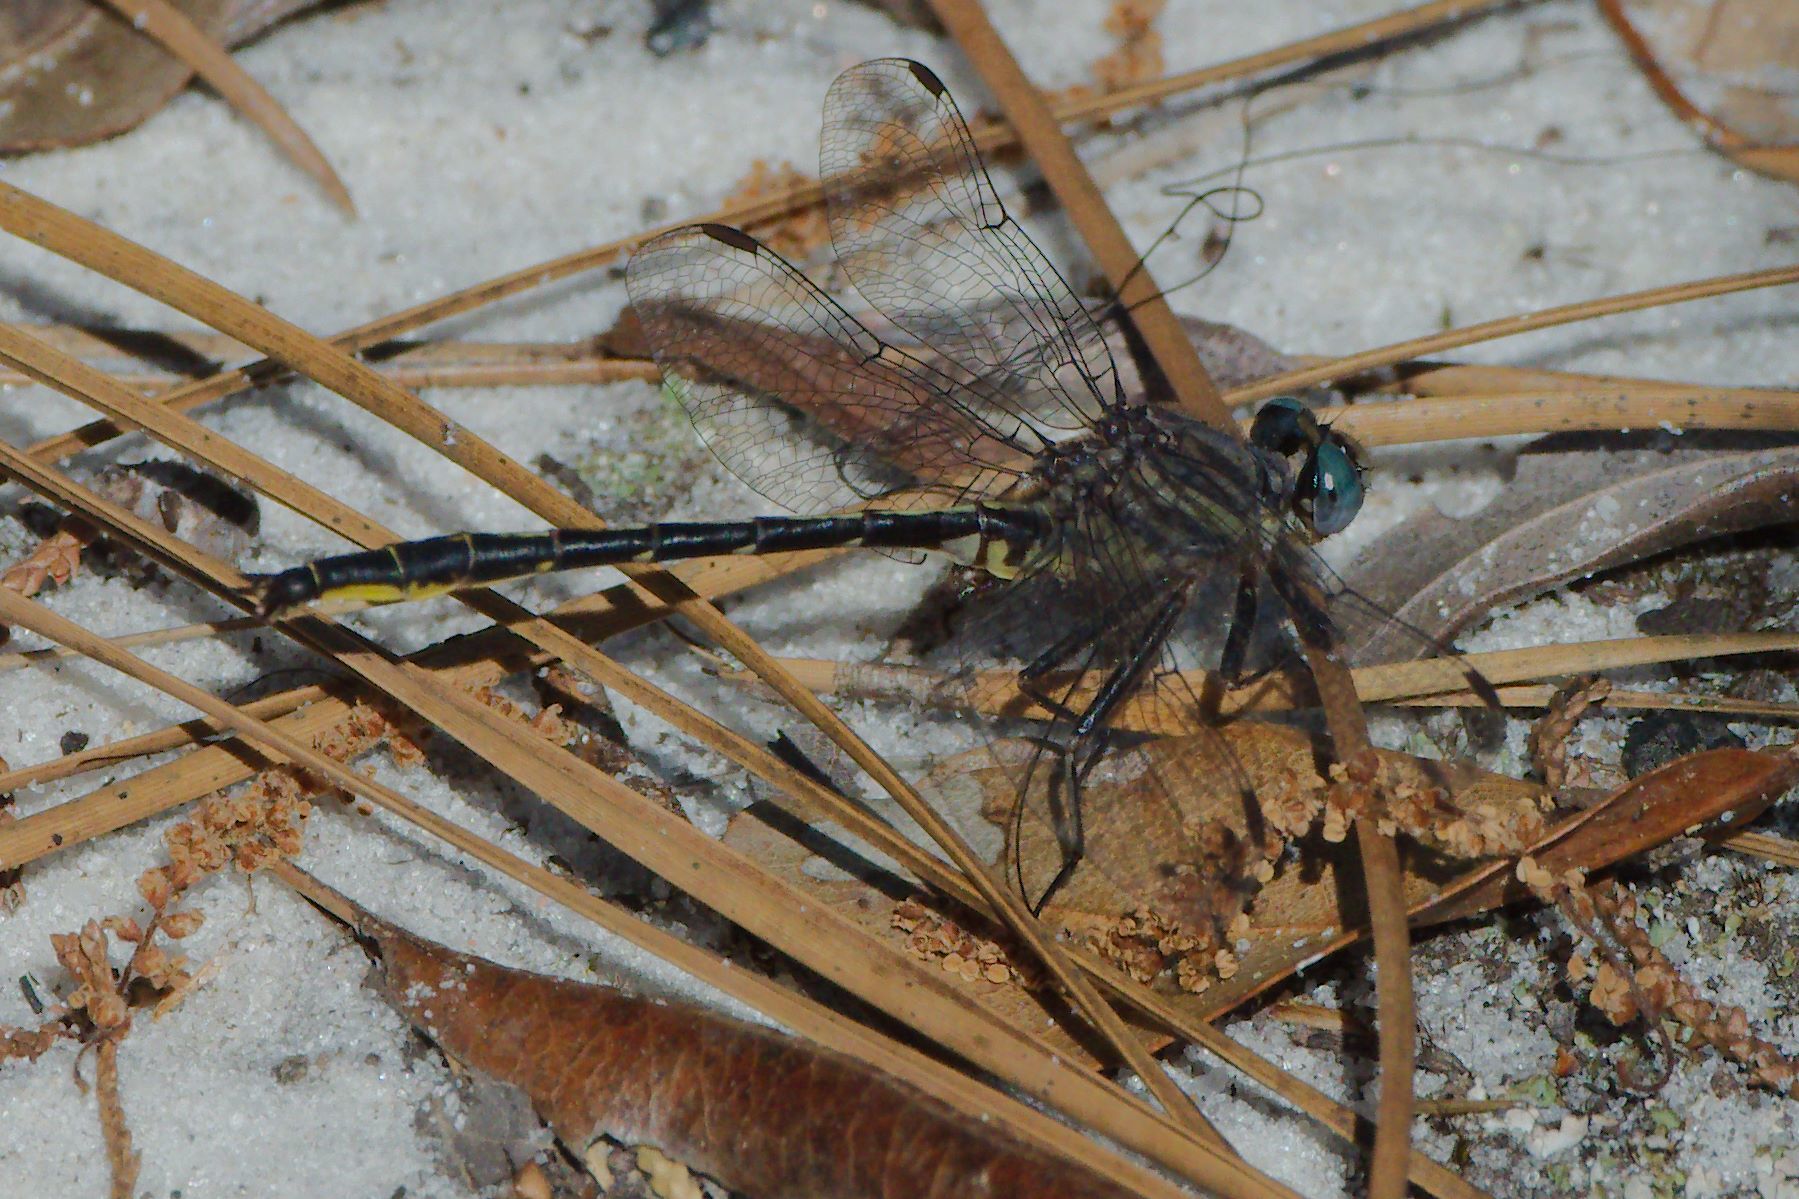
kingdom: Animalia
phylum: Arthropoda
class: Insecta
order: Odonata
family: Gomphidae
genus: Phanogomphus
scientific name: Phanogomphus westfalli
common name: Westfall’s clubtail
